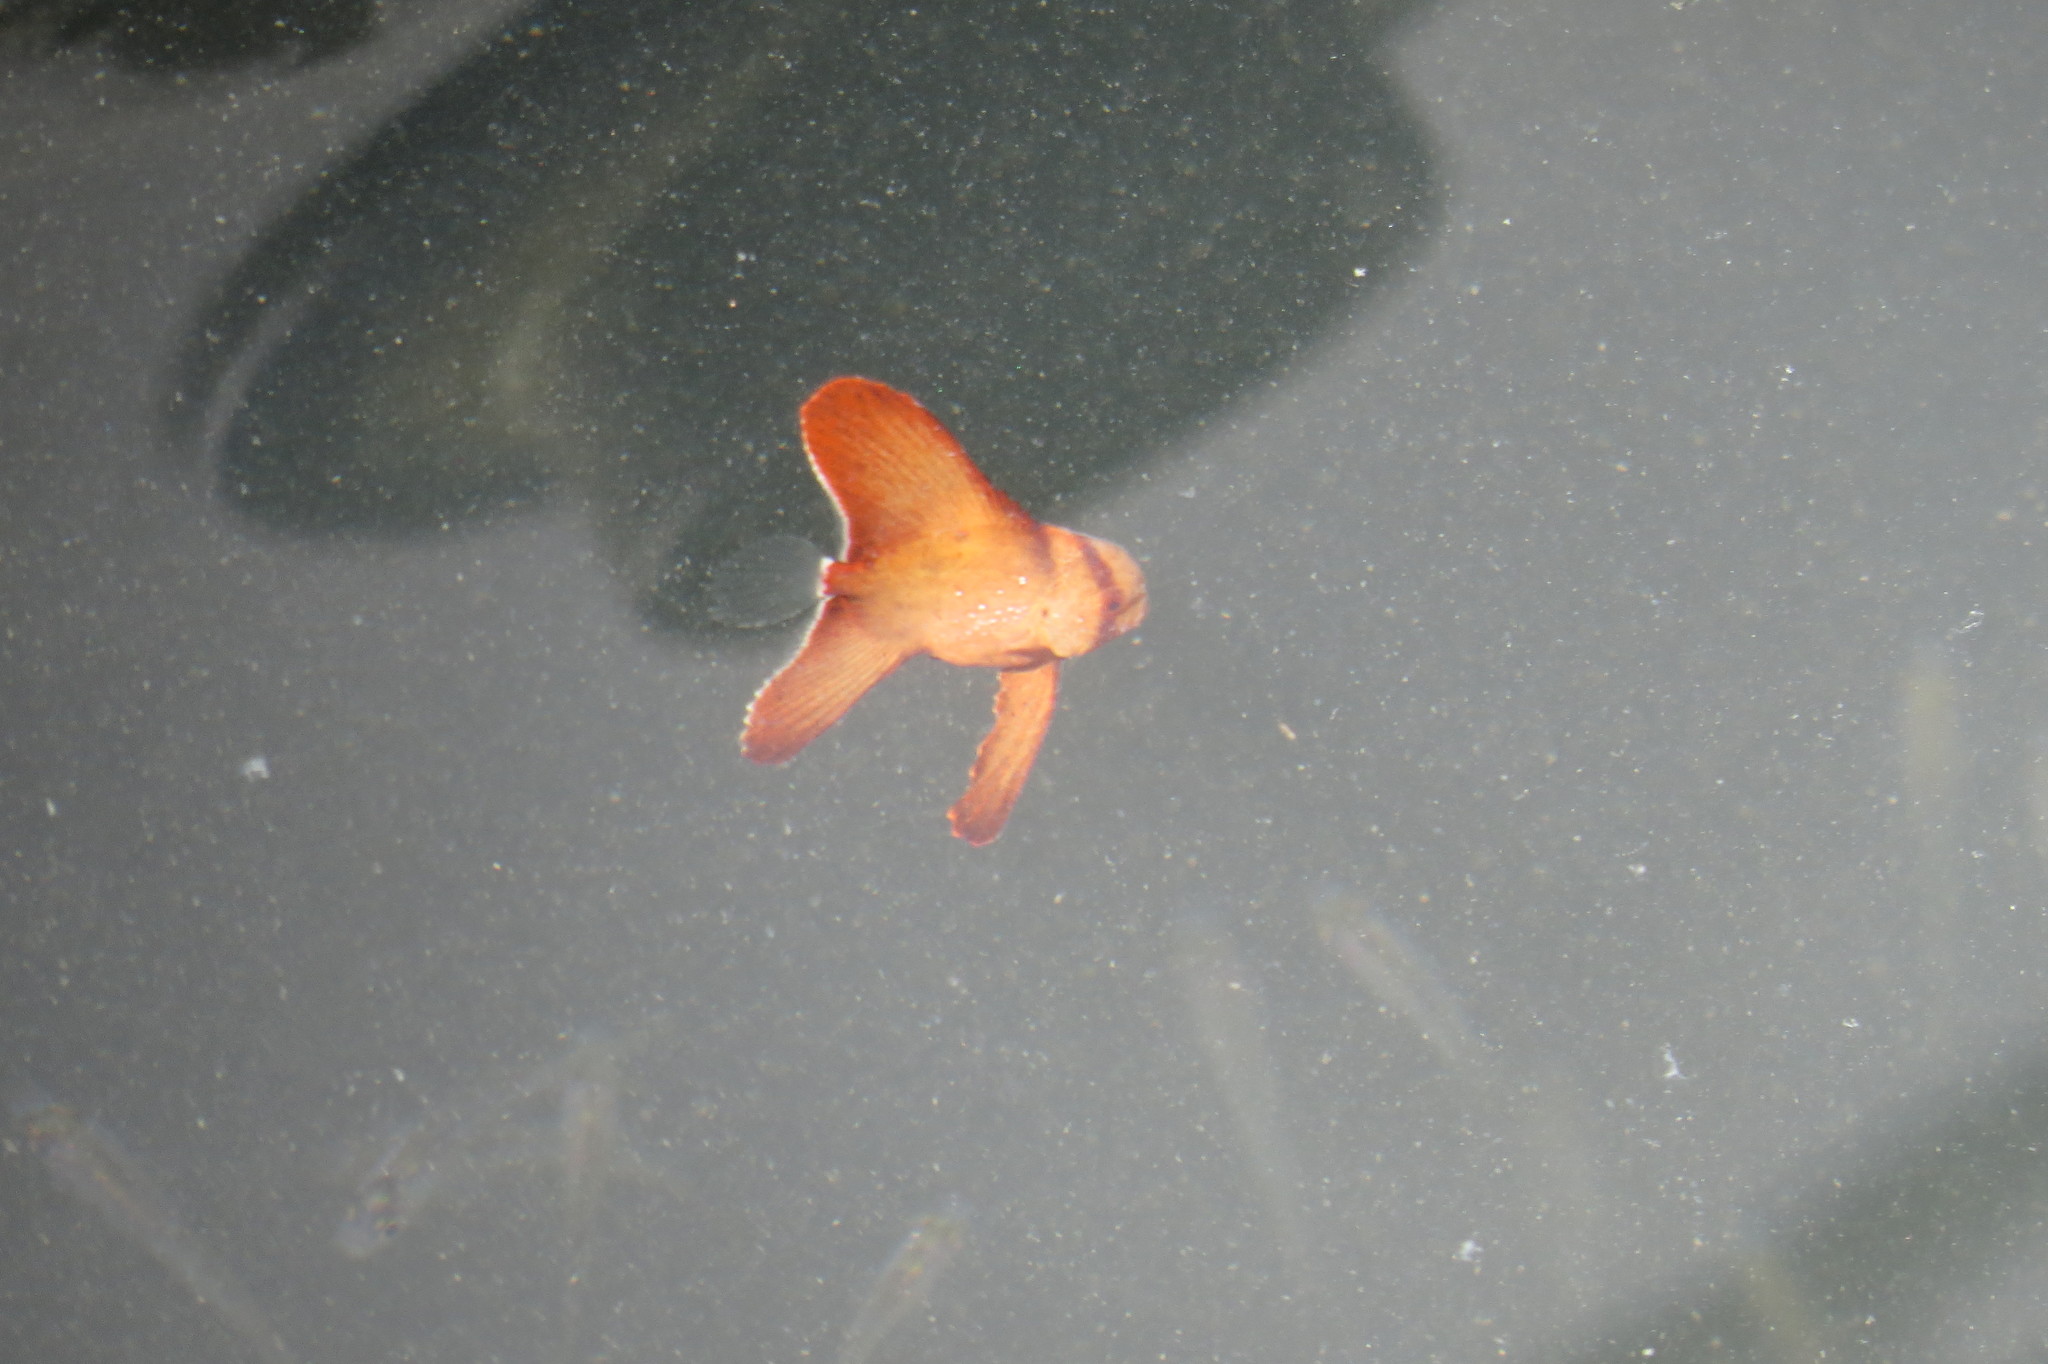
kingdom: Animalia
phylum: Chordata
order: Perciformes
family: Ephippidae
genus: Platax
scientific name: Platax orbicularis
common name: Batfish
